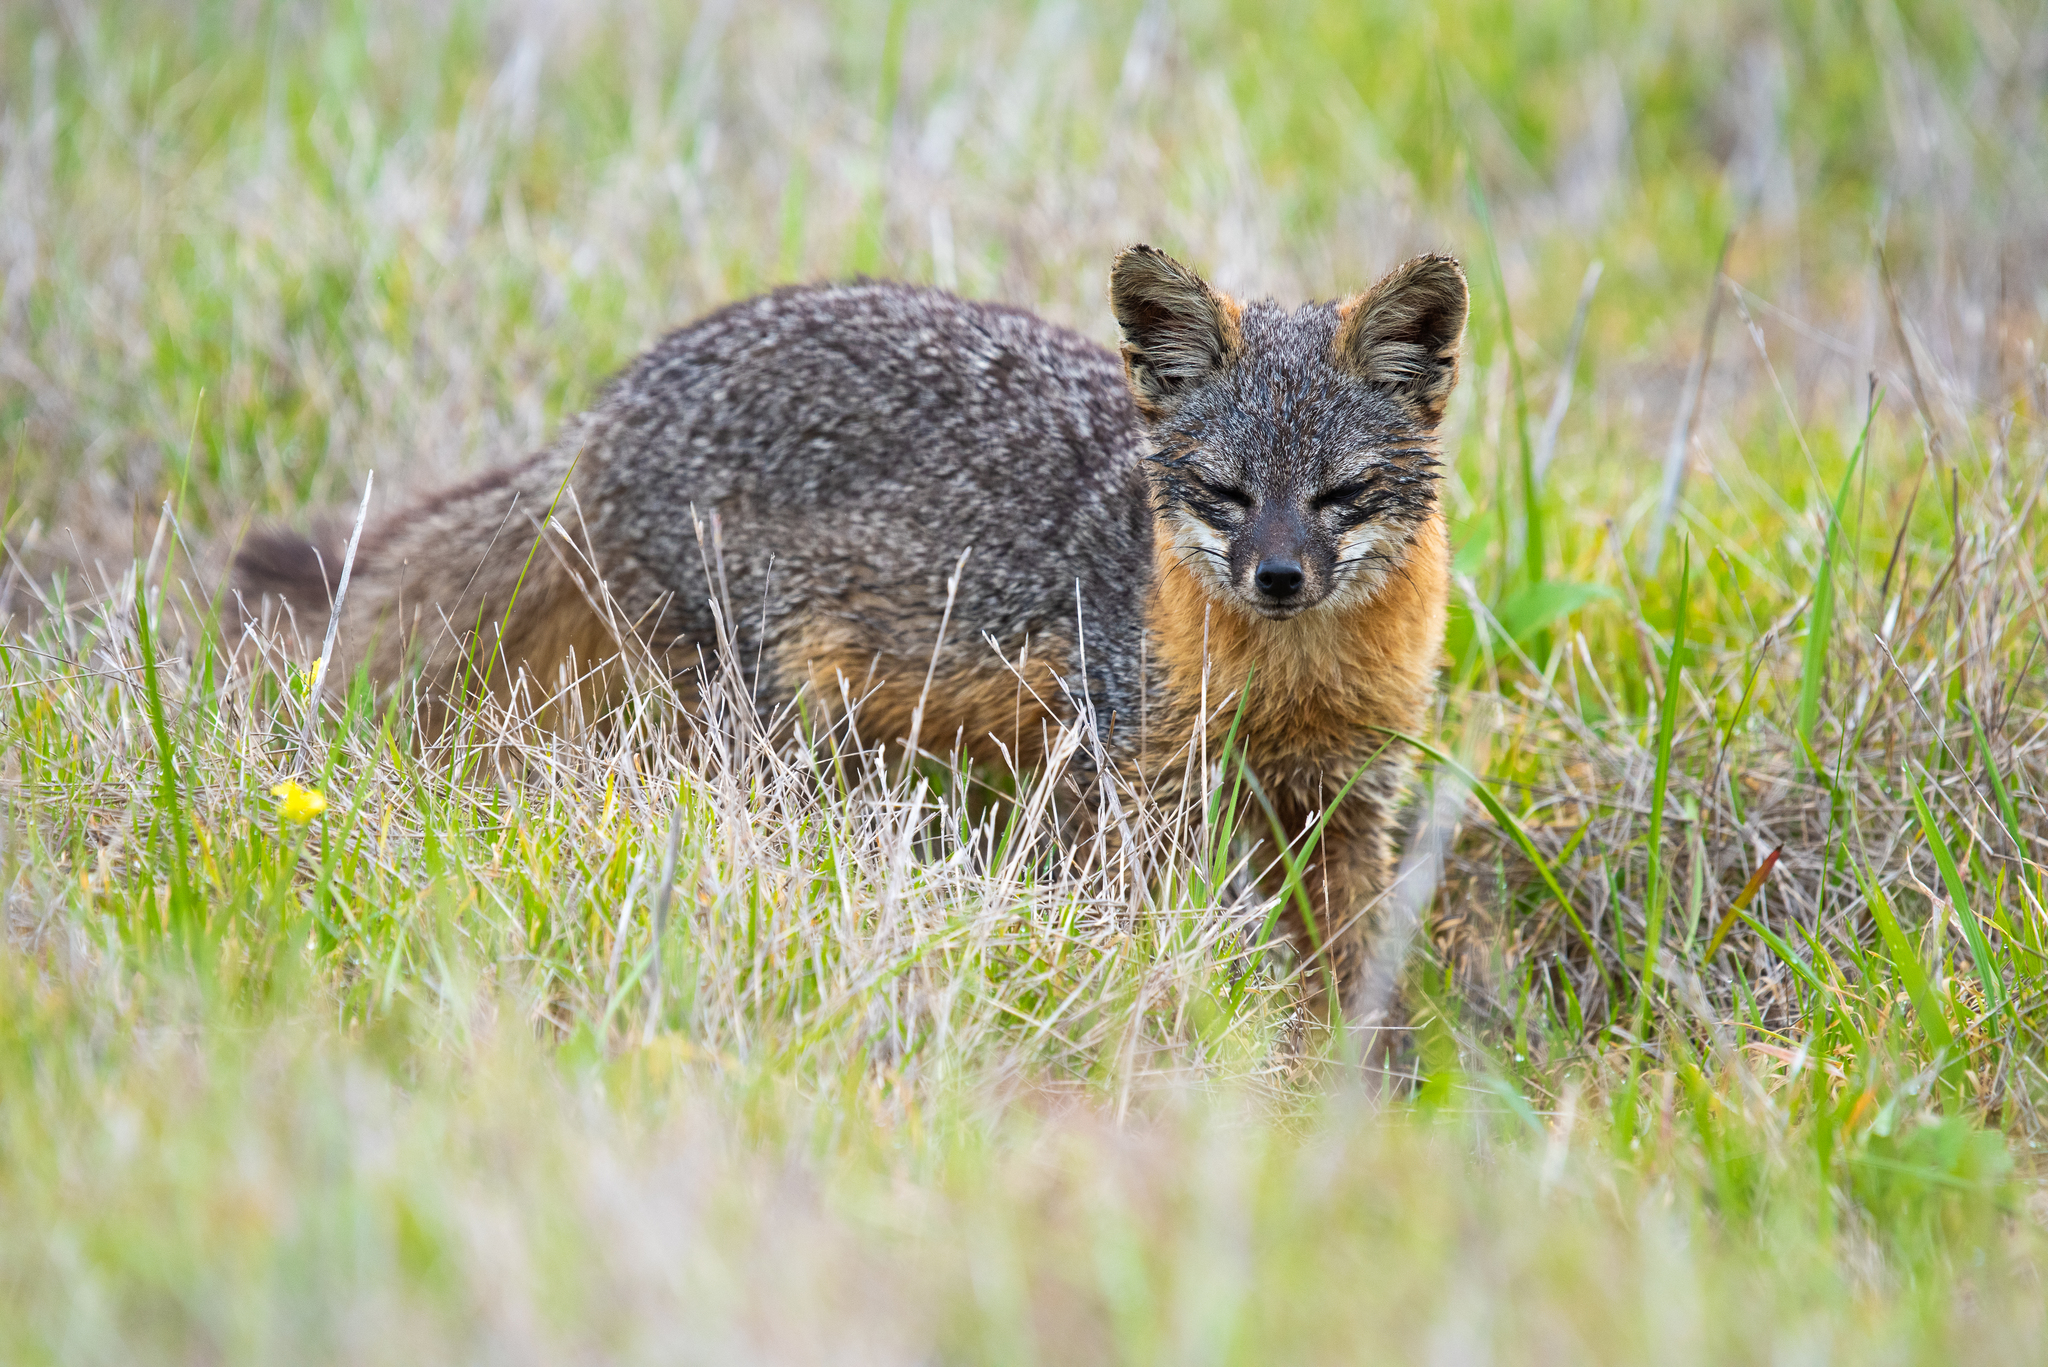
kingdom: Animalia
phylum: Chordata
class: Mammalia
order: Carnivora
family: Canidae
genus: Urocyon
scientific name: Urocyon littoralis
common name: Island gray fox
